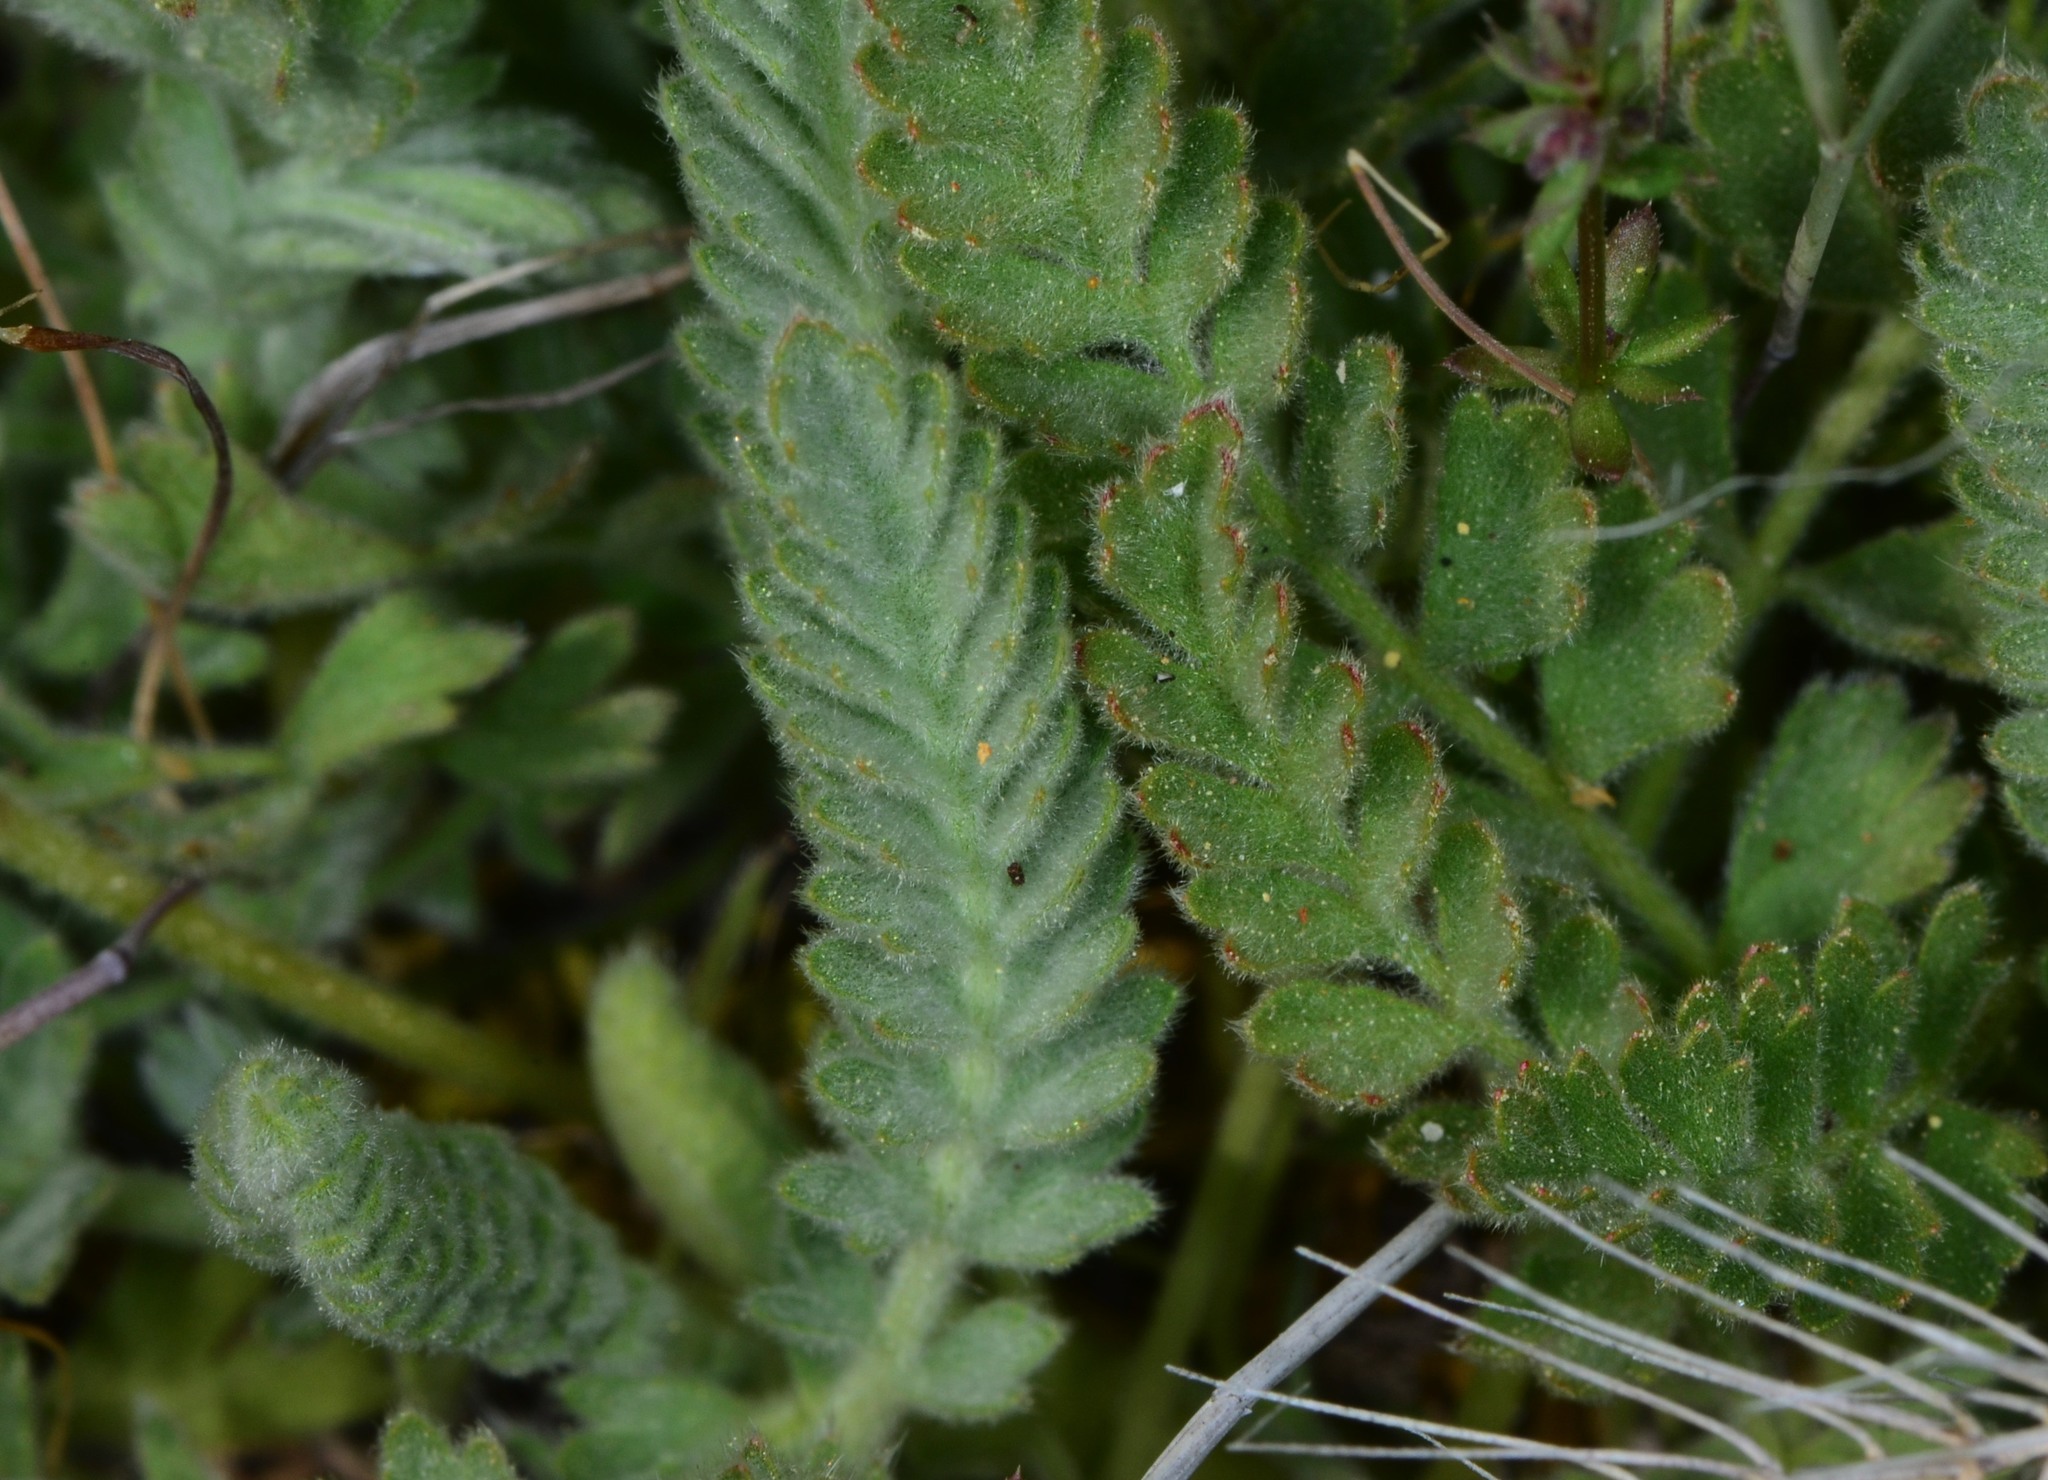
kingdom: Plantae
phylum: Tracheophyta
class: Magnoliopsida
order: Rosales
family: Rosaceae
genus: Potentilla
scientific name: Potentilla bolanderi
